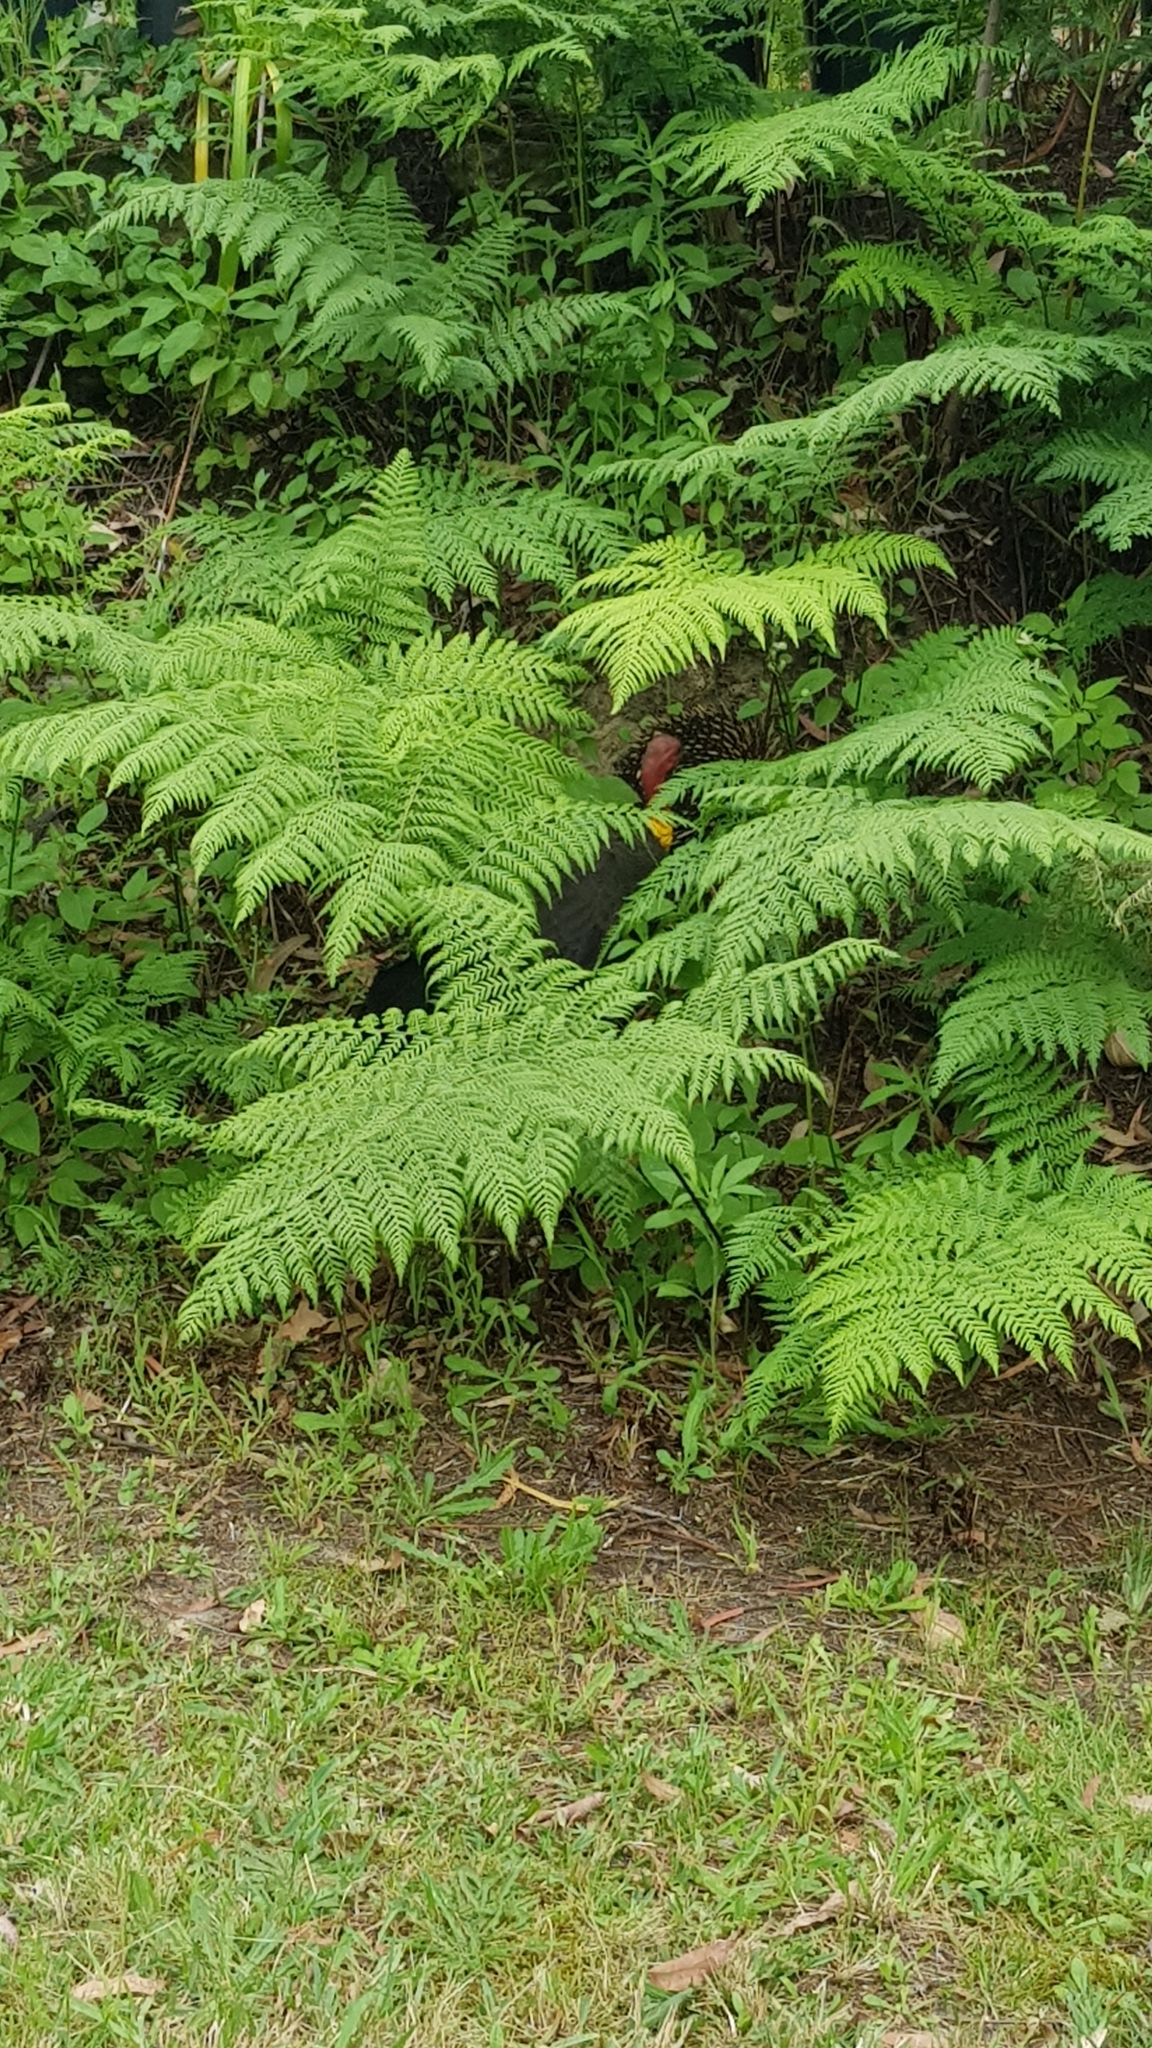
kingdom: Animalia
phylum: Chordata
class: Mammalia
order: Monotremata
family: Tachyglossidae
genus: Tachyglossus
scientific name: Tachyglossus aculeatus
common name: Short-beaked echidna
